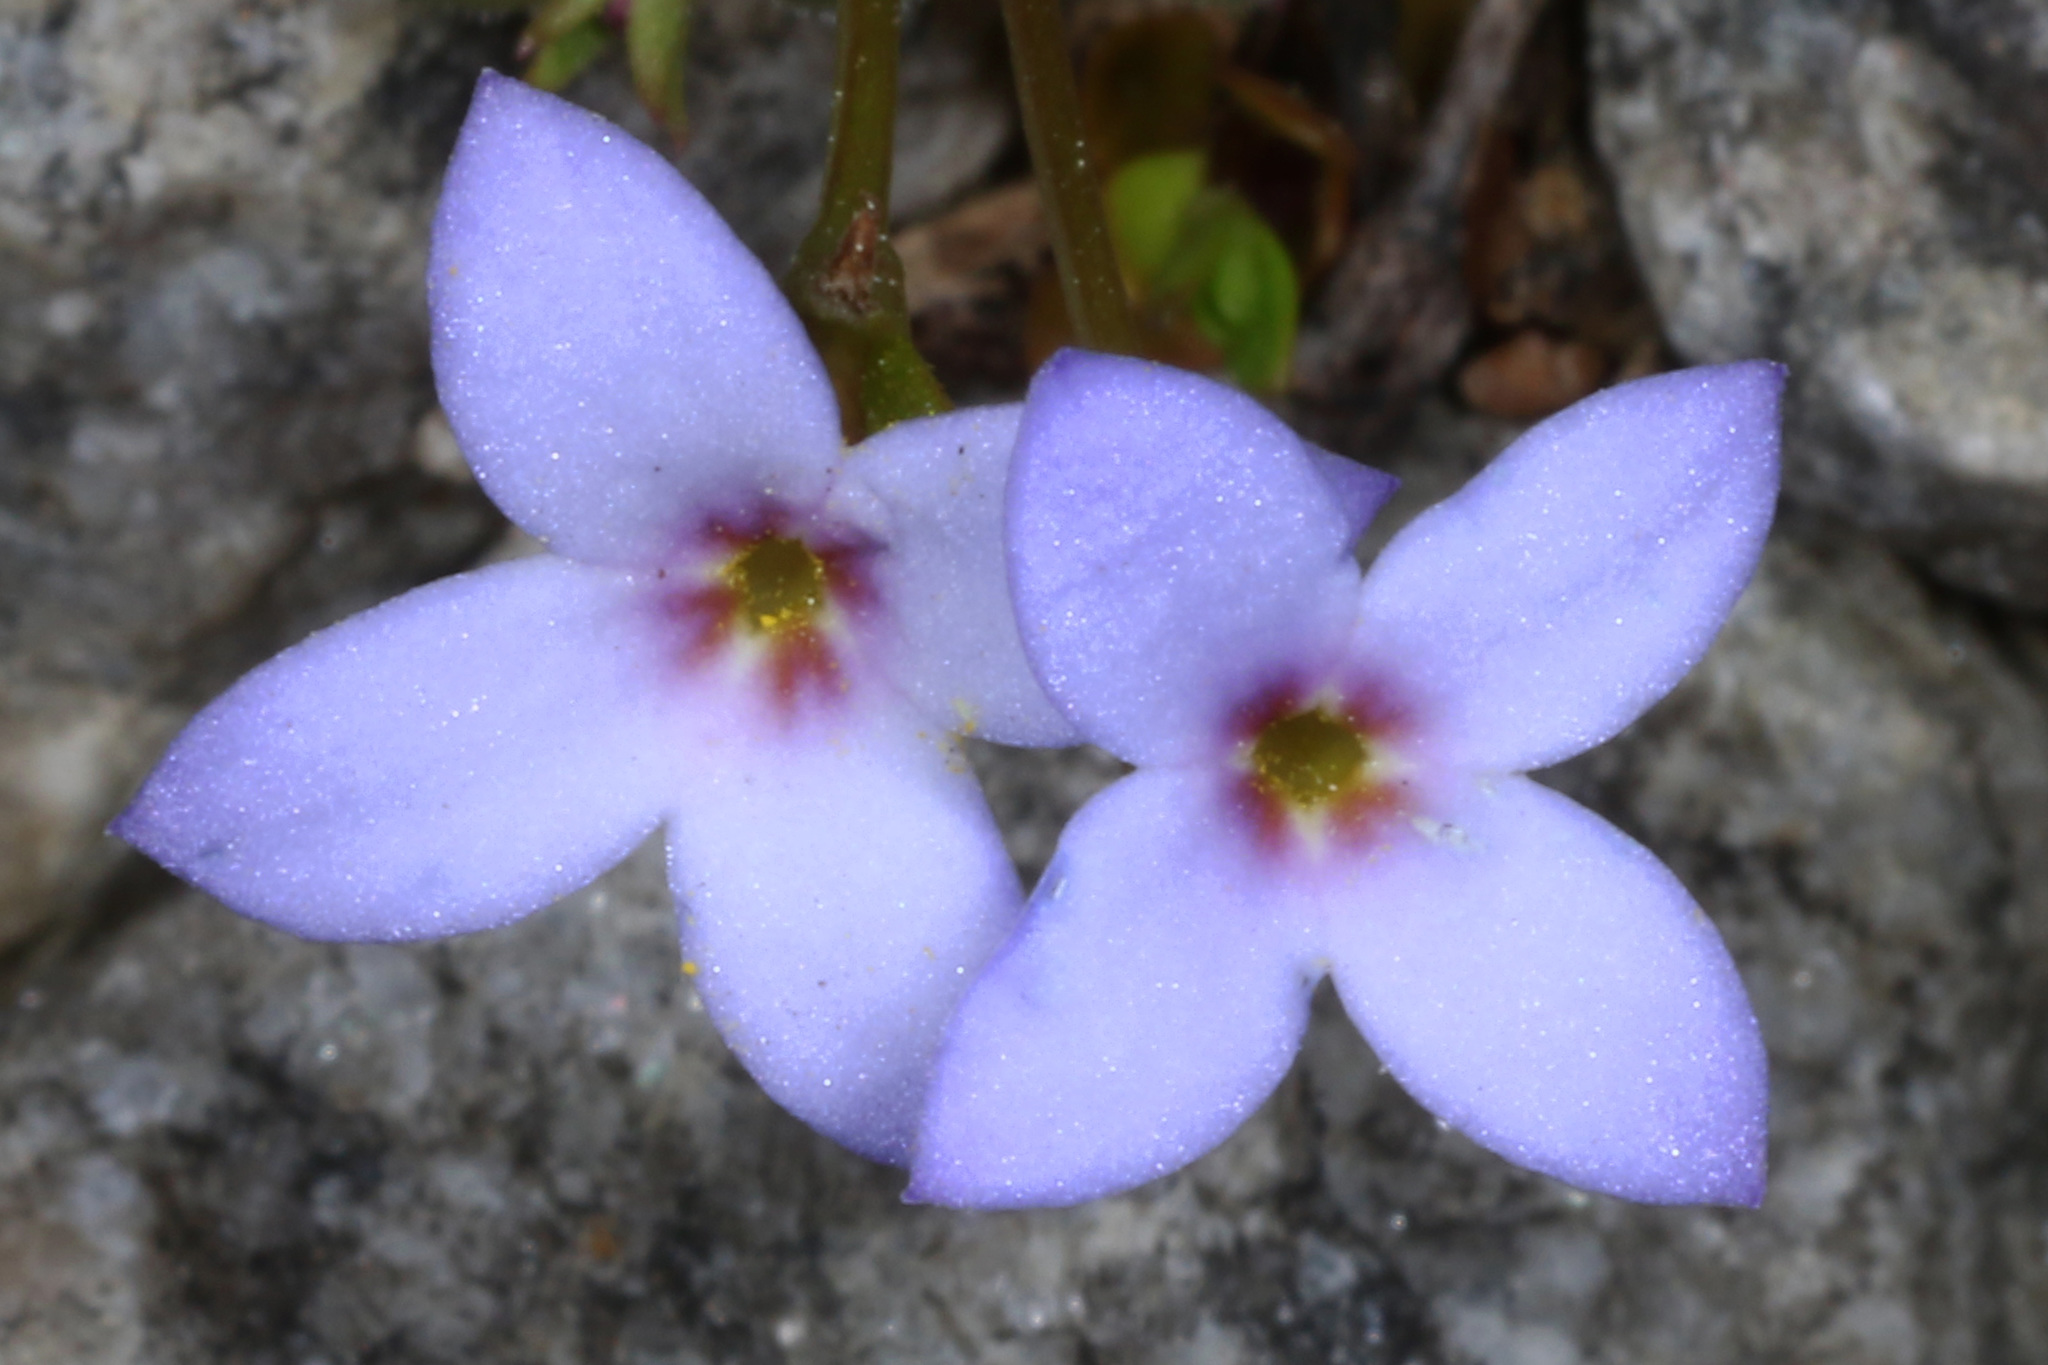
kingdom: Plantae
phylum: Tracheophyta
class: Magnoliopsida
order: Gentianales
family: Rubiaceae
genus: Houstonia
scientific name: Houstonia pusilla
